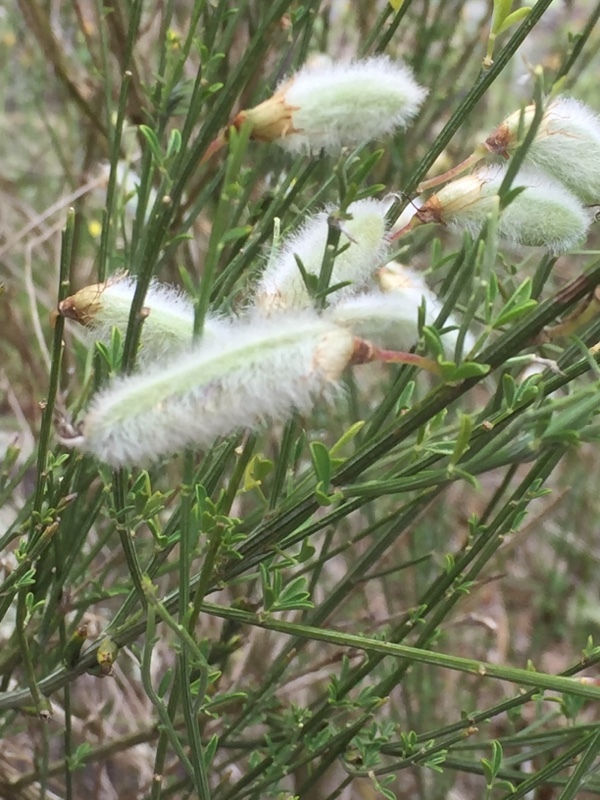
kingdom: Plantae
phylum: Tracheophyta
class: Magnoliopsida
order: Fabales
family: Fabaceae
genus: Cytisus
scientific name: Cytisus striatus
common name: Hairy-fruited broom
